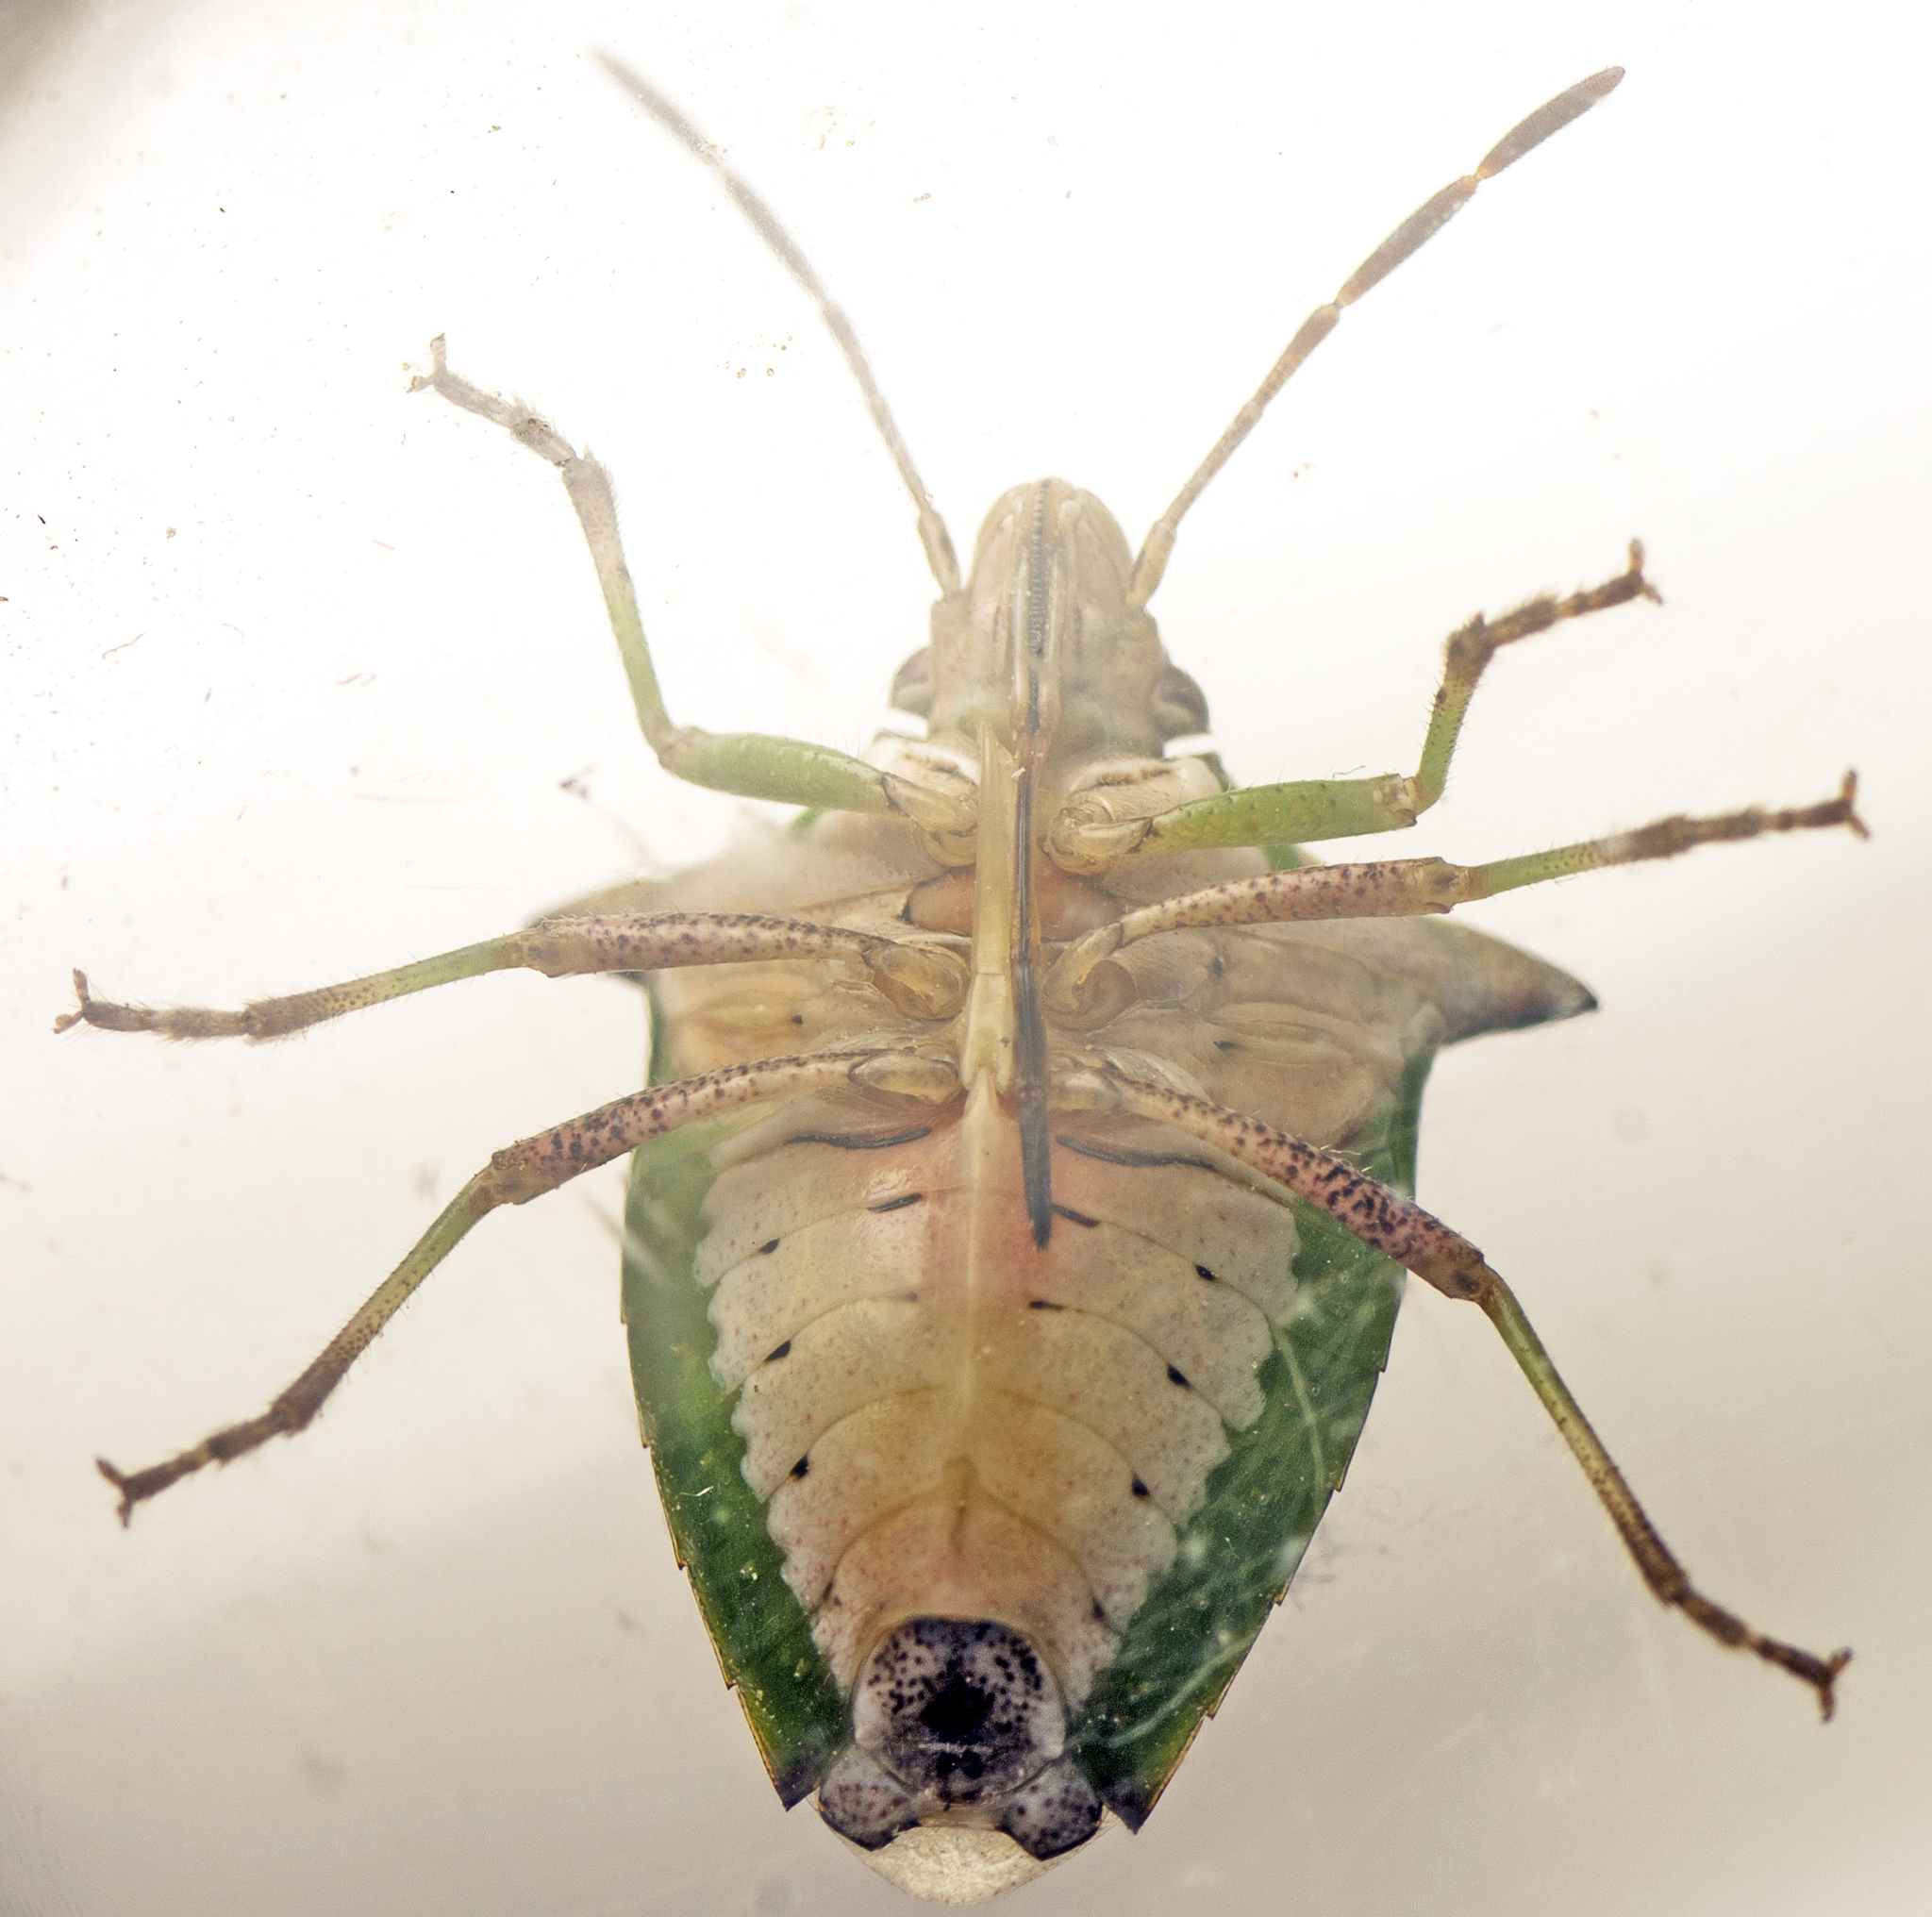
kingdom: Animalia
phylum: Arthropoda
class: Insecta
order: Hemiptera
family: Pentatomidae
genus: Cuspicona
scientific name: Cuspicona
